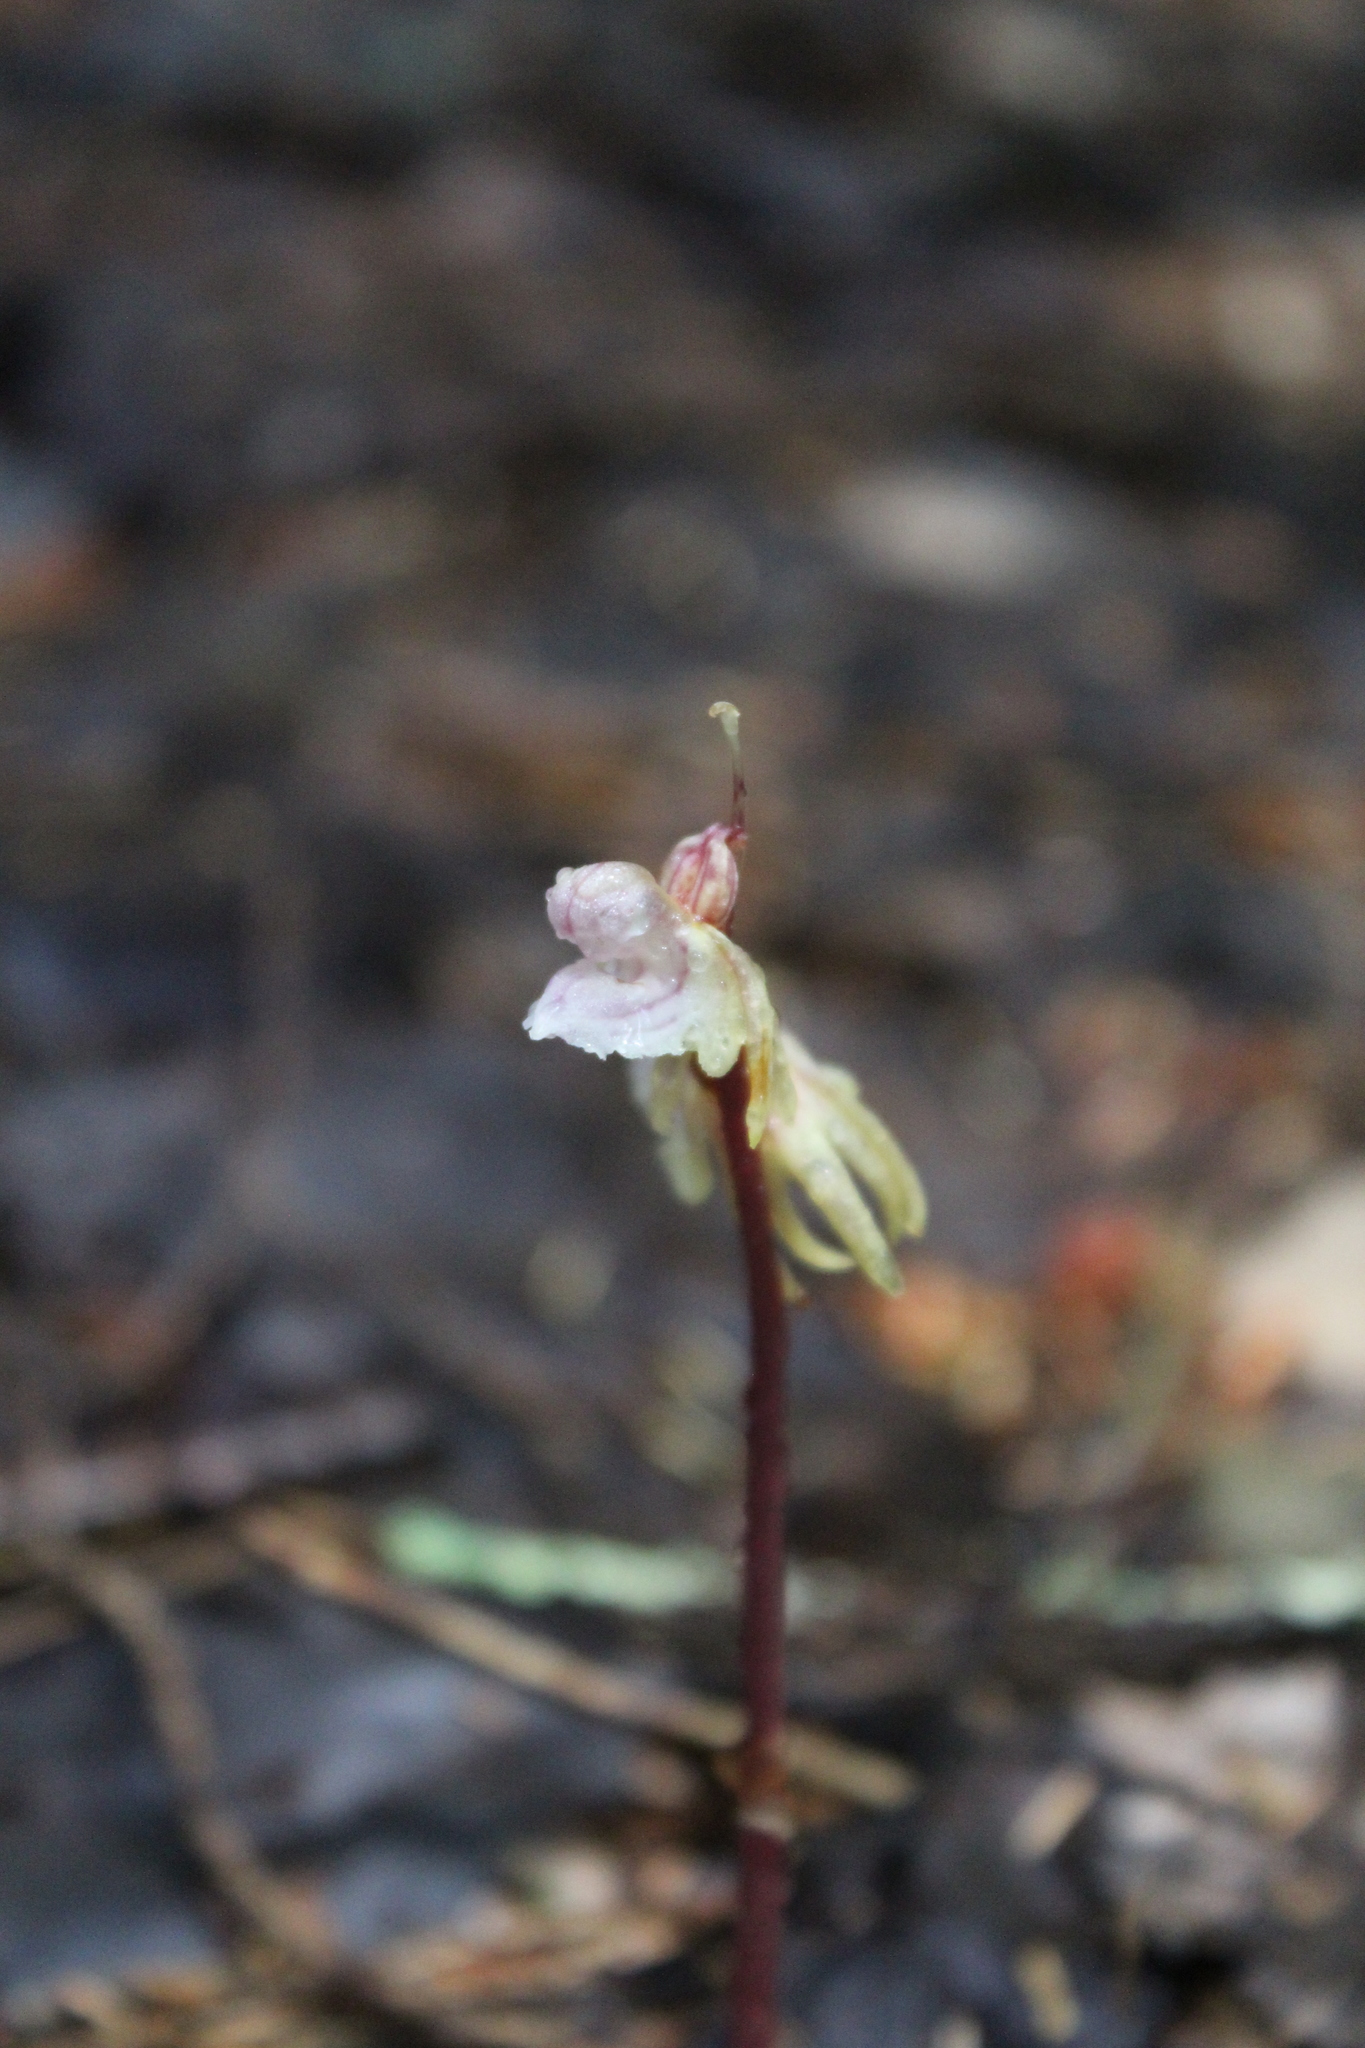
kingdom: Plantae
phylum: Tracheophyta
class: Liliopsida
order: Asparagales
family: Orchidaceae
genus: Epipogium
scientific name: Epipogium aphyllum
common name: Ghost orchid
